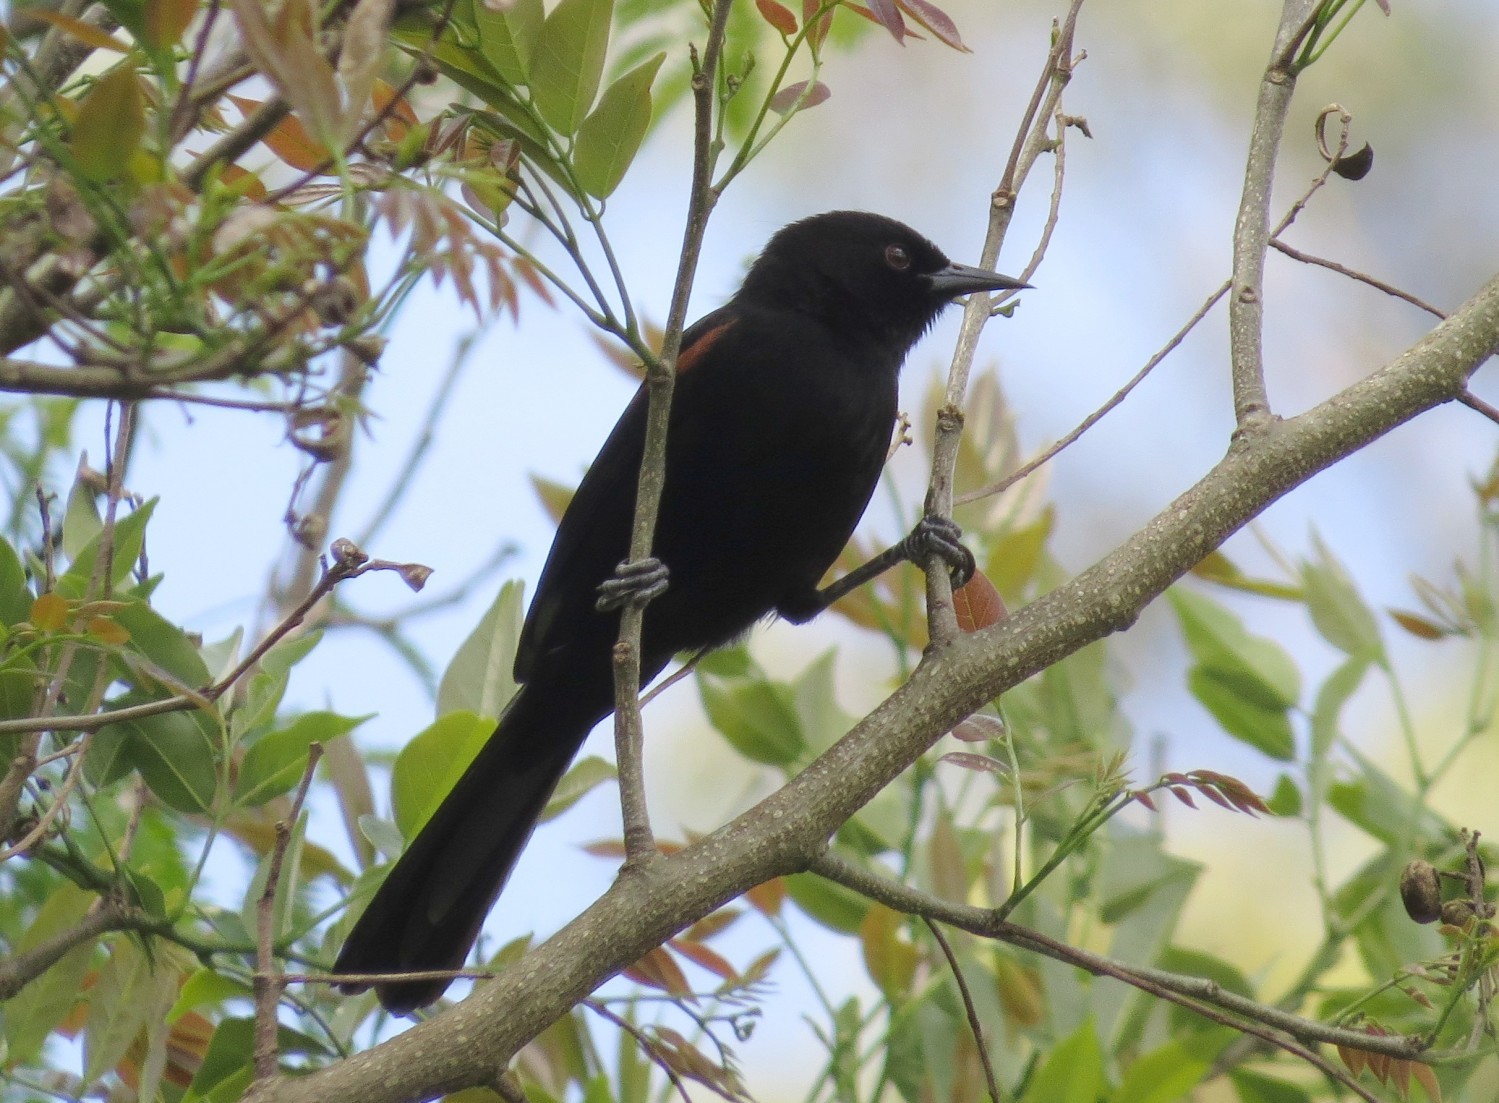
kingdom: Animalia
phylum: Chordata
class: Aves
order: Passeriformes
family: Icteridae
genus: Icterus
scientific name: Icterus cayanensis
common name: Epaulet oriole
